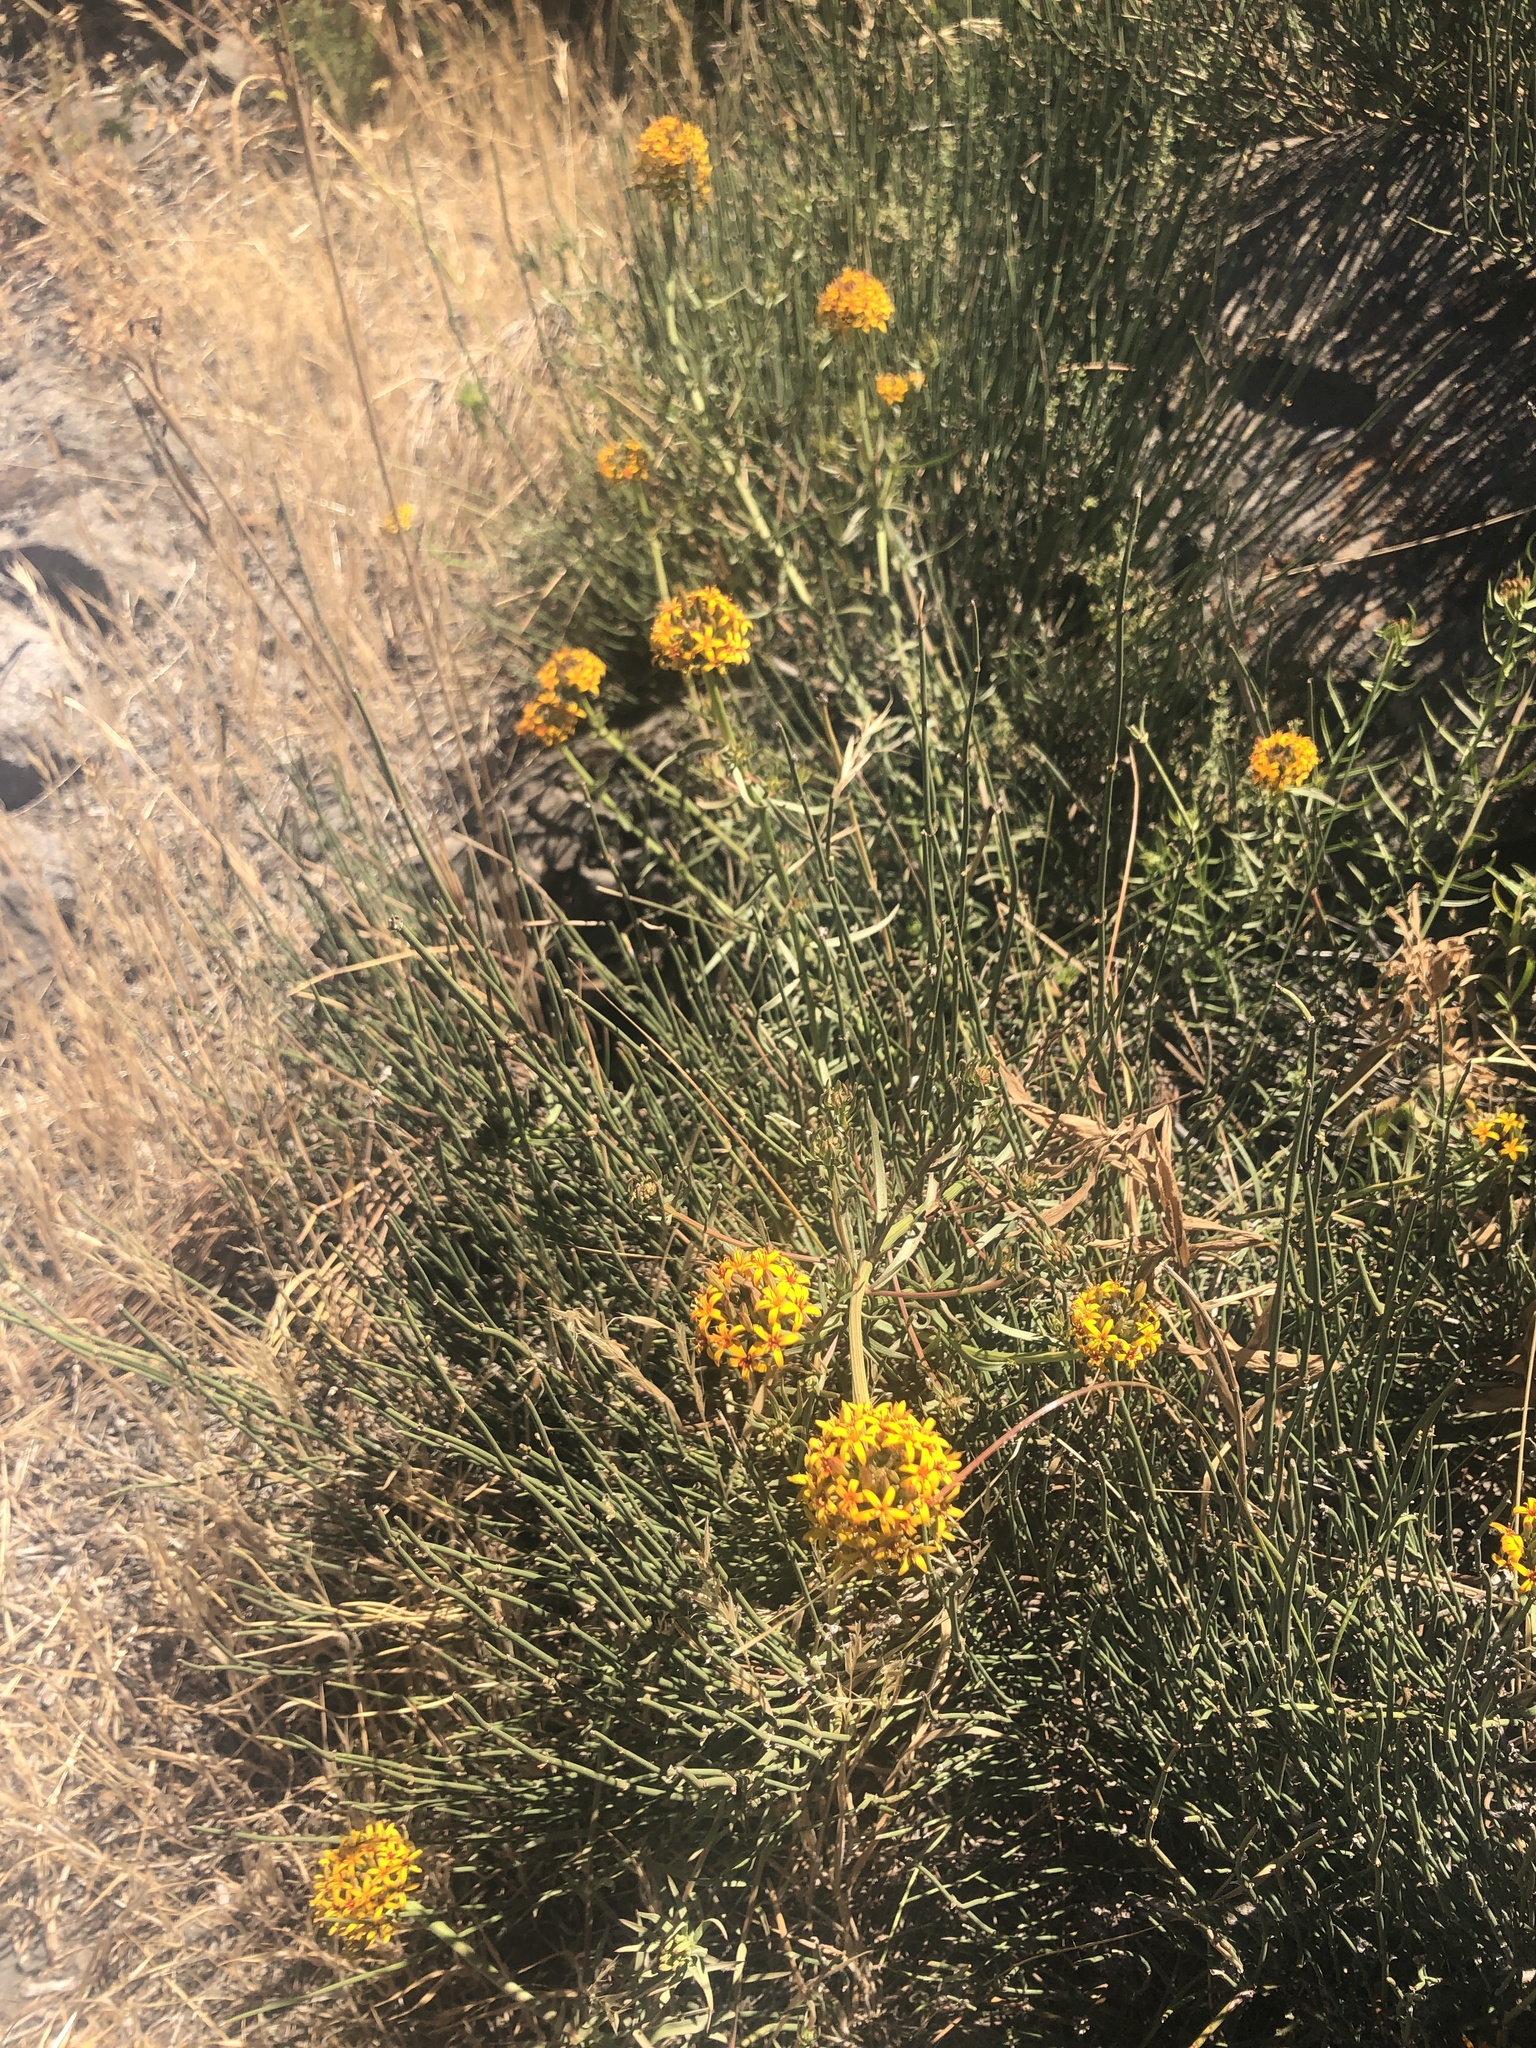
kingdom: Plantae
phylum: Tracheophyta
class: Magnoliopsida
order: Santalales
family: Schoepfiaceae
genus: Quinchamalium
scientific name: Quinchamalium chilense
